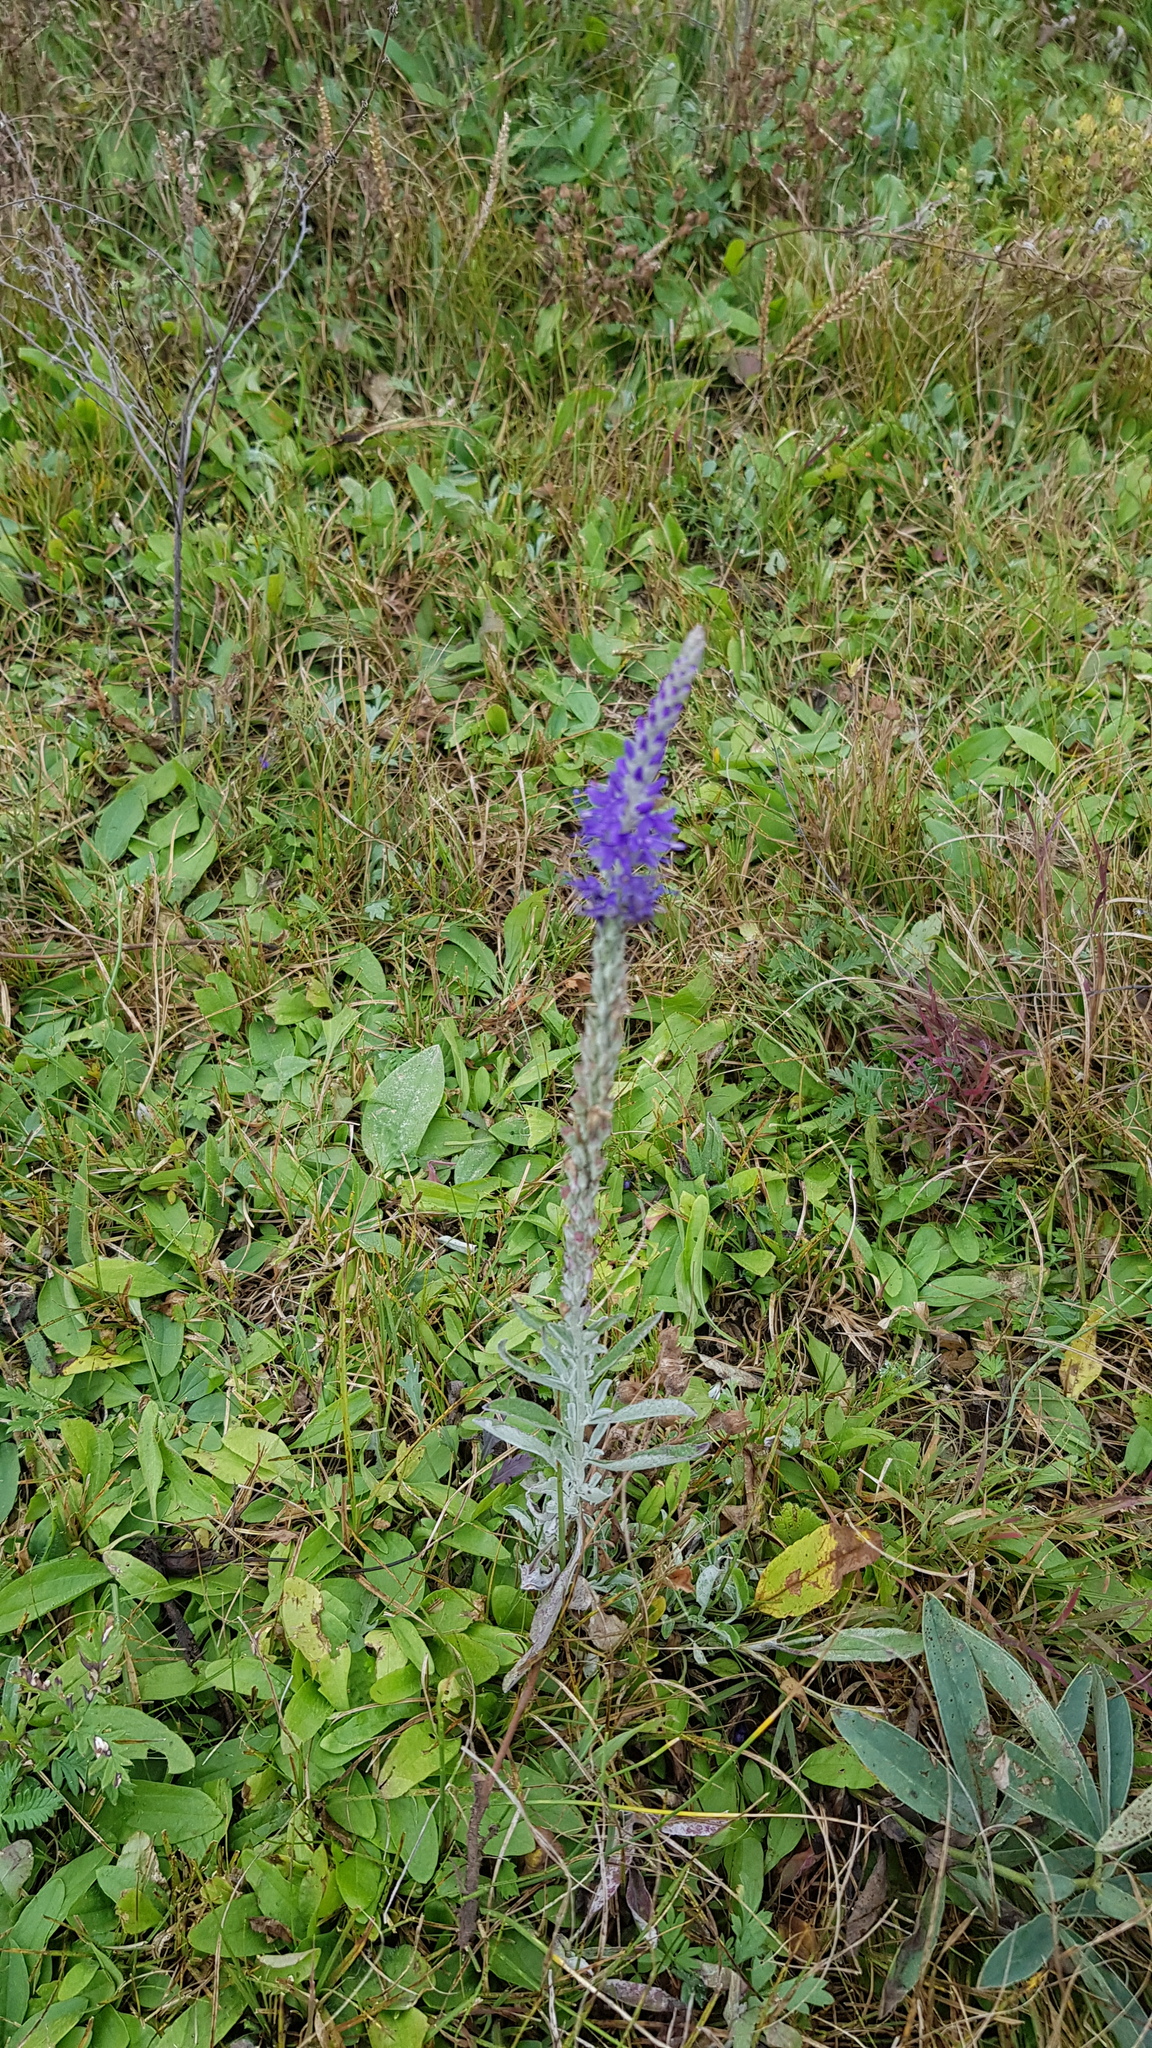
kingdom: Plantae
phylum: Tracheophyta
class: Magnoliopsida
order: Lamiales
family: Plantaginaceae
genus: Veronica
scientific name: Veronica incana
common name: Silver speedwell
